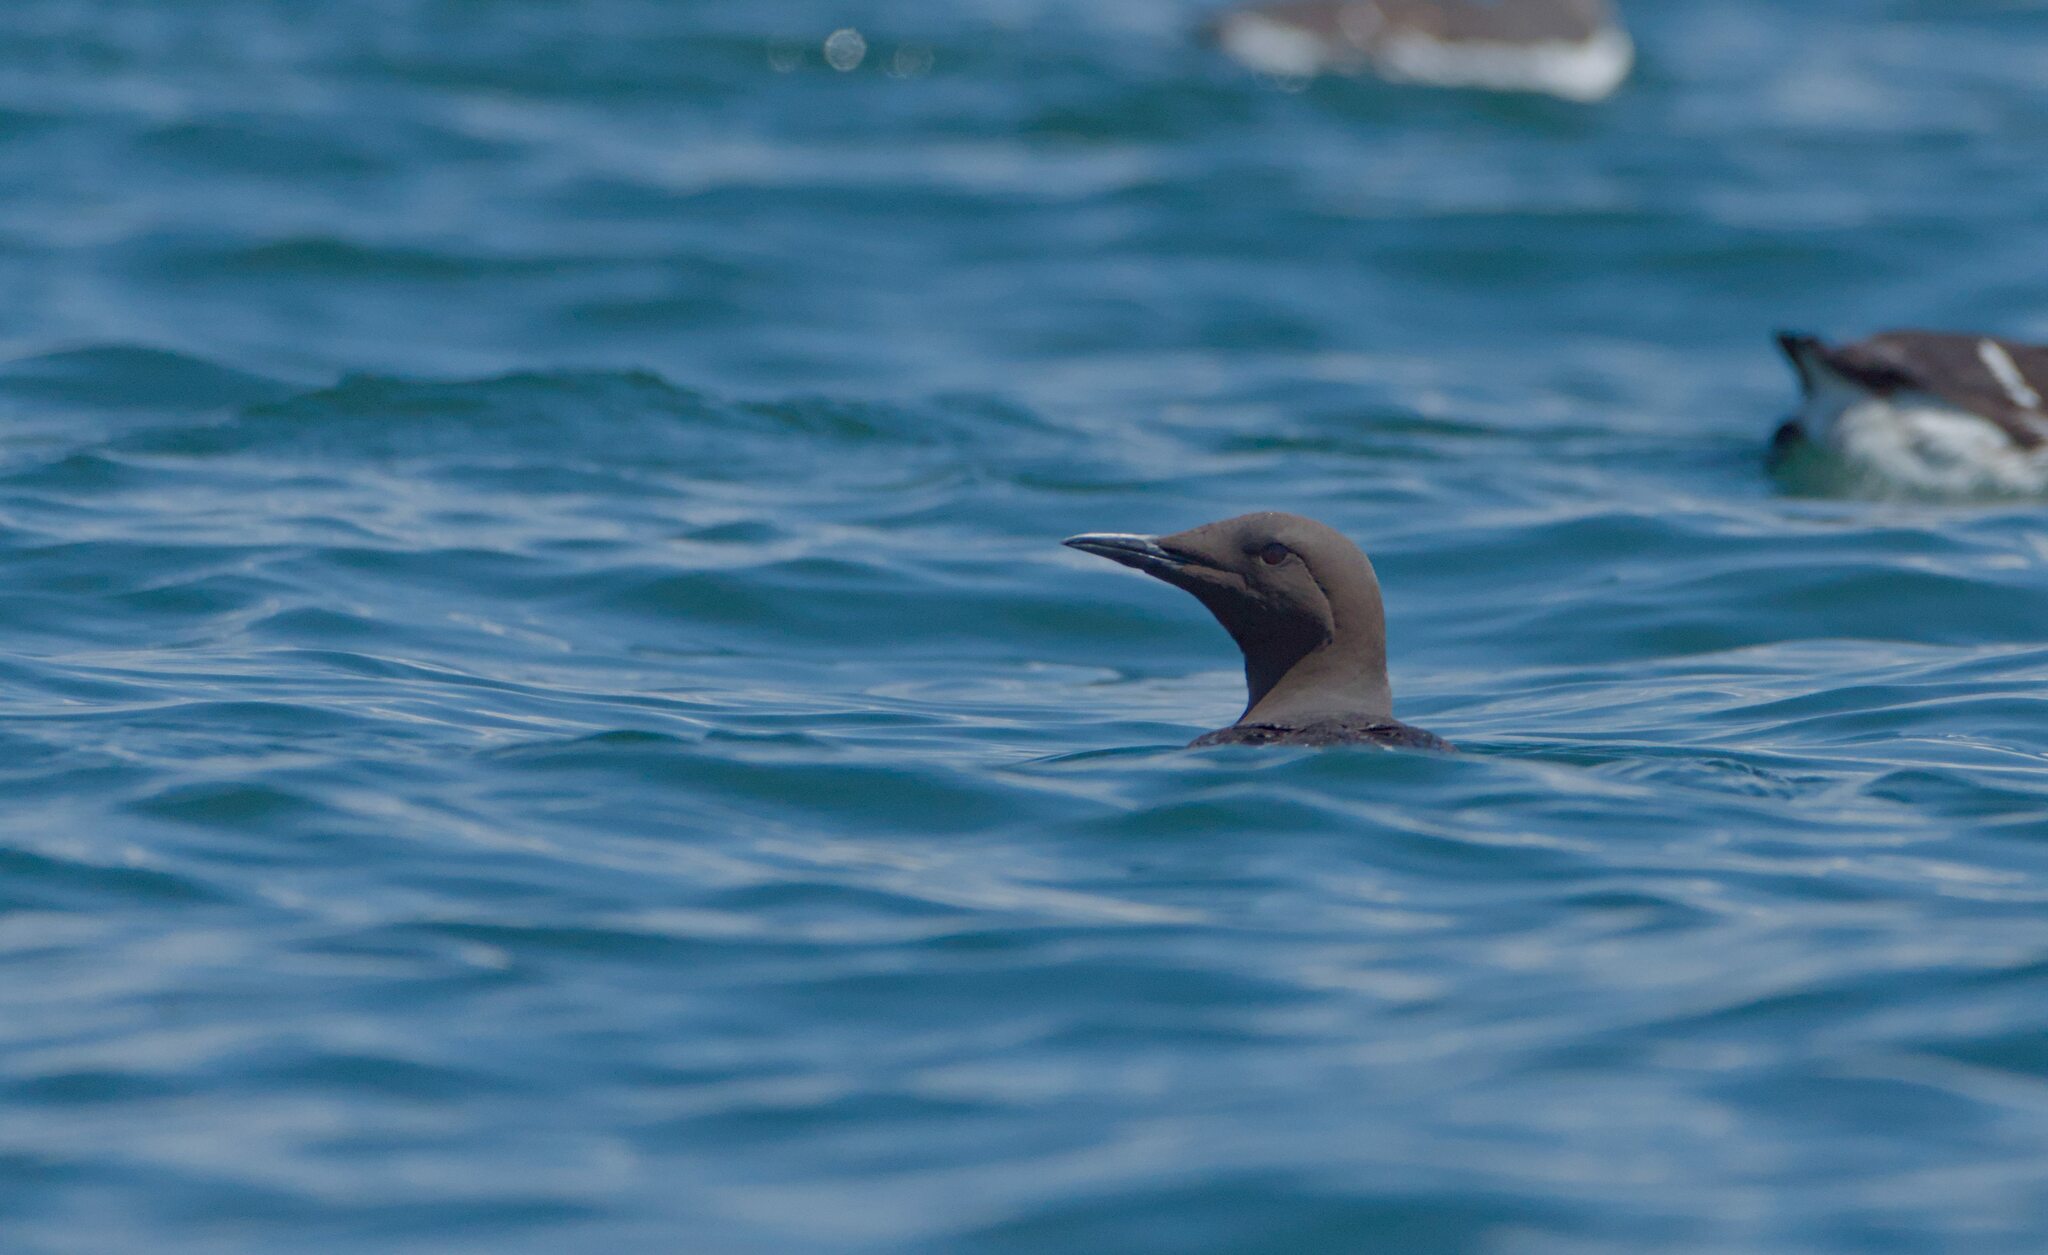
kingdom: Animalia
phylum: Chordata
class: Aves
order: Charadriiformes
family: Alcidae
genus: Uria
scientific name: Uria aalge
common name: Common murre
